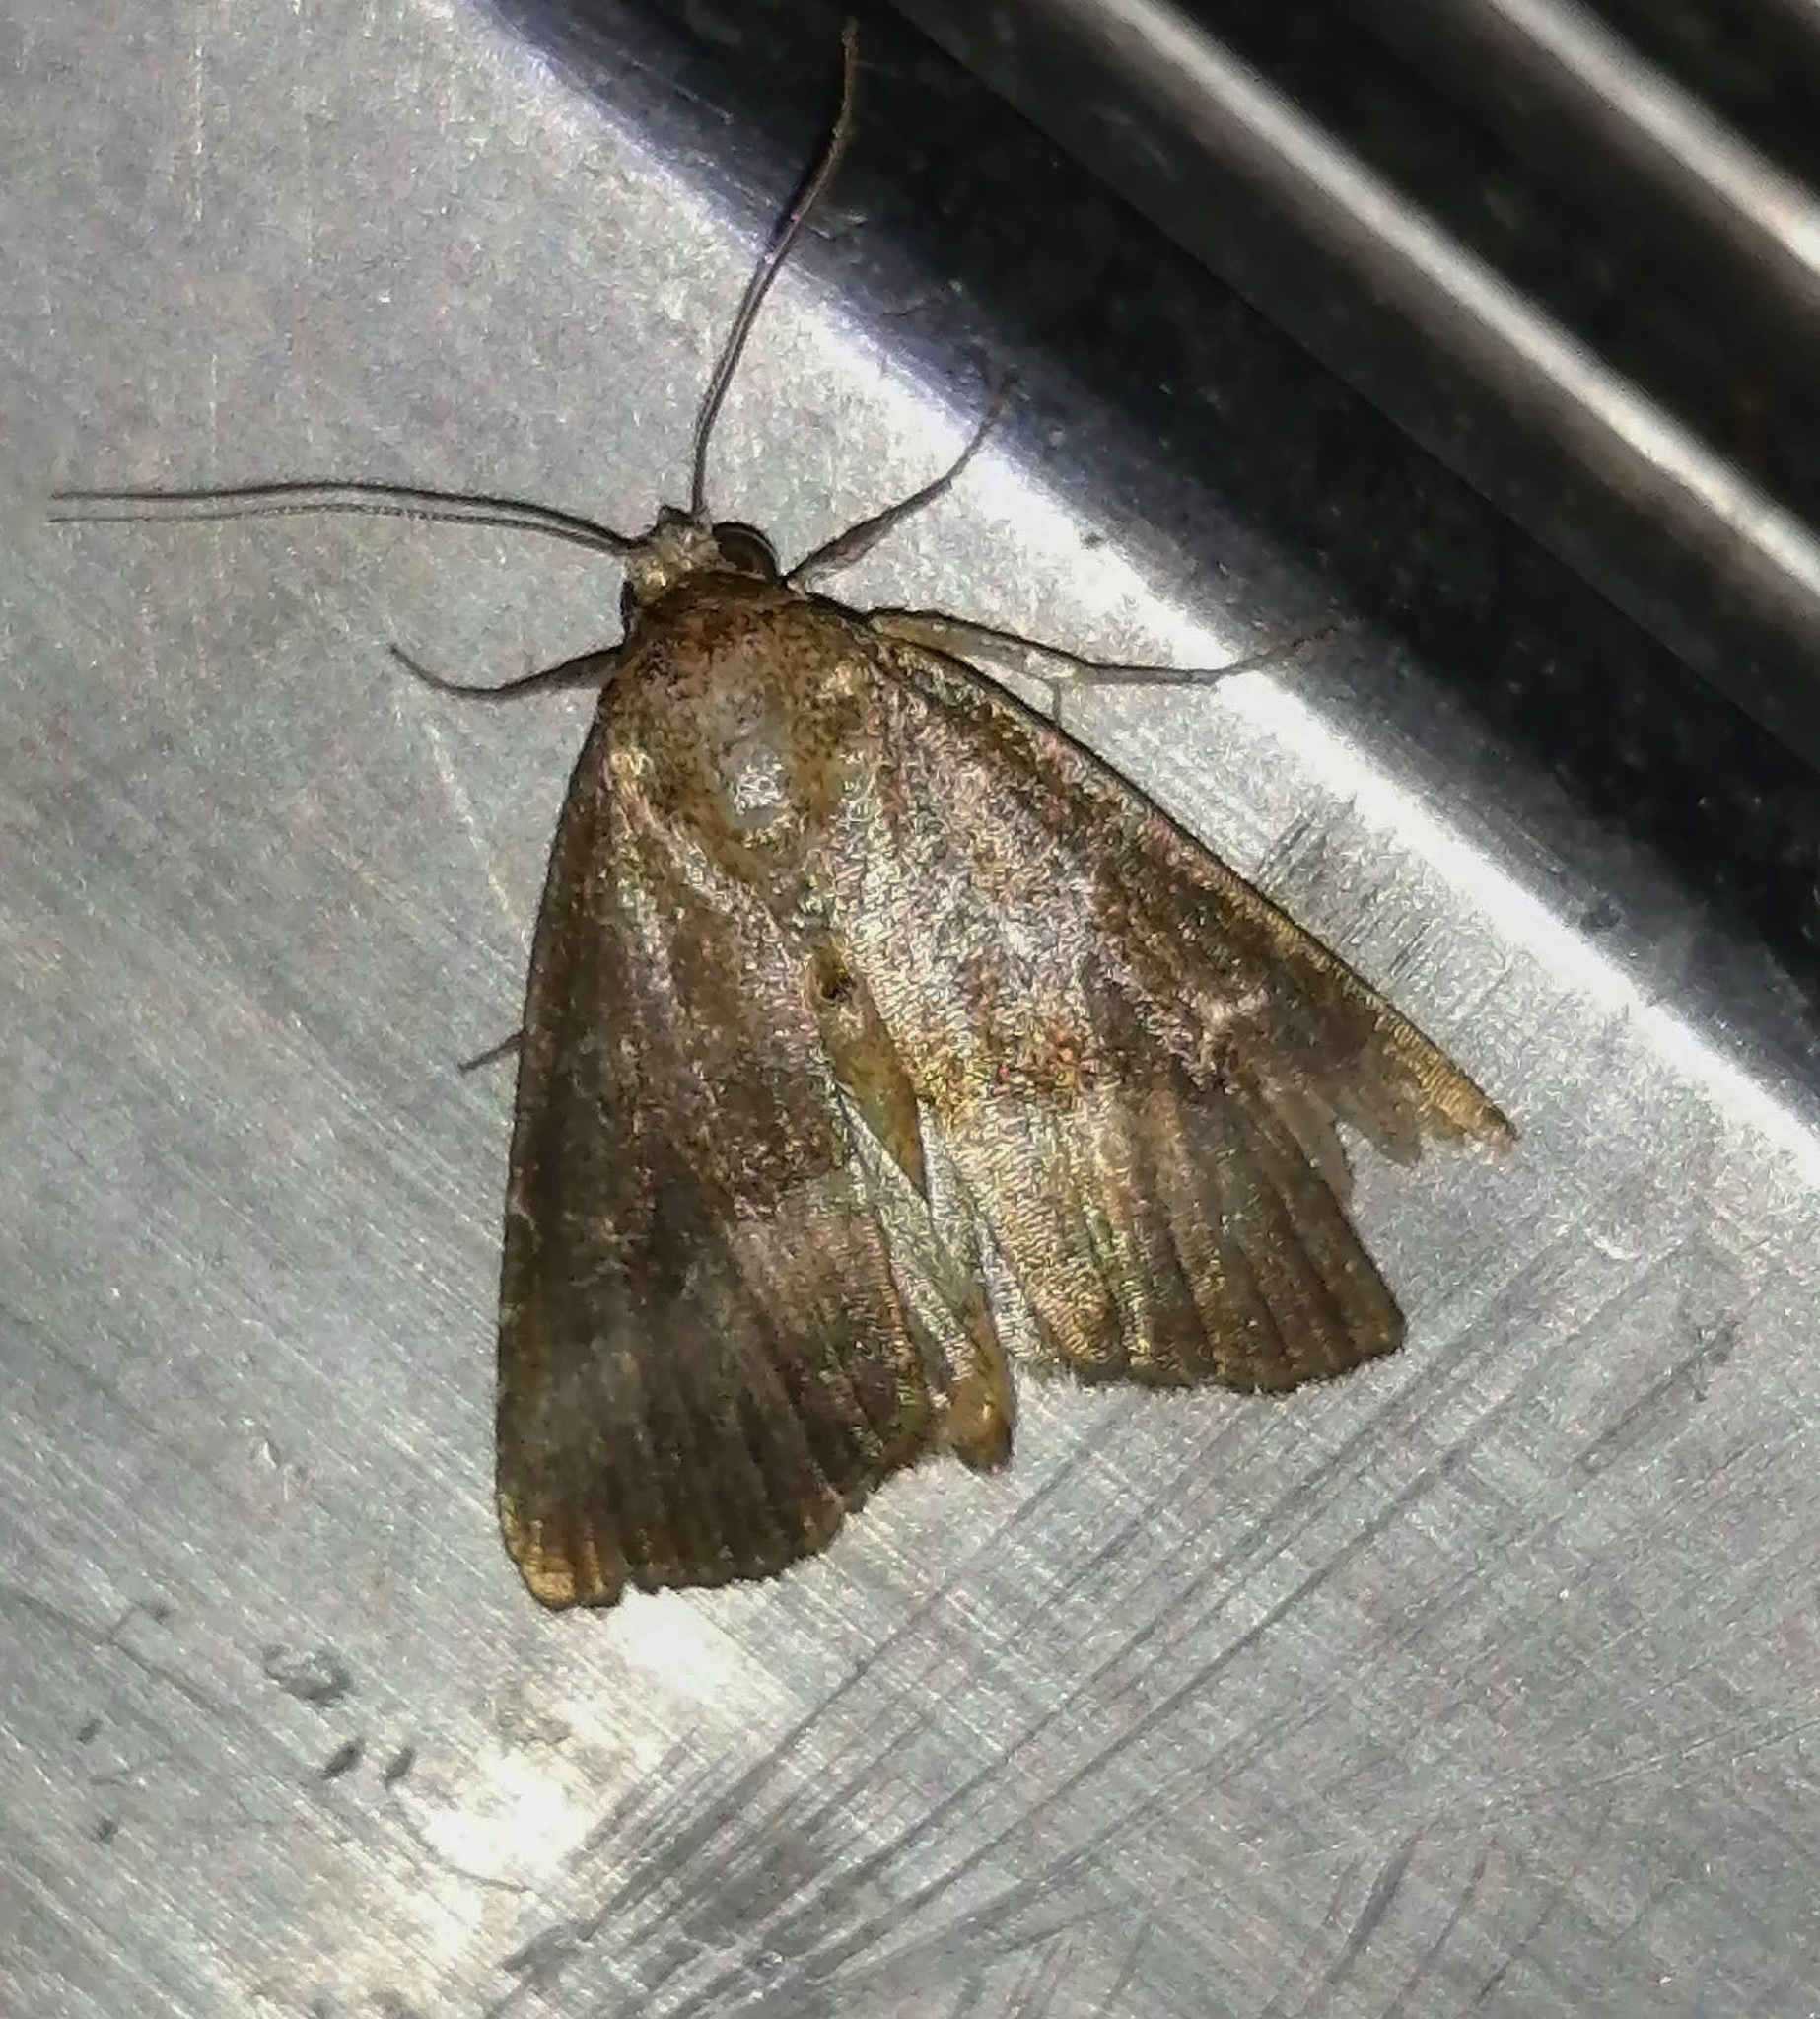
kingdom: Animalia
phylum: Arthropoda
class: Insecta
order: Lepidoptera
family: Noctuidae
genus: Ogdoconta
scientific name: Ogdoconta cinereola
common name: Common pinkband
